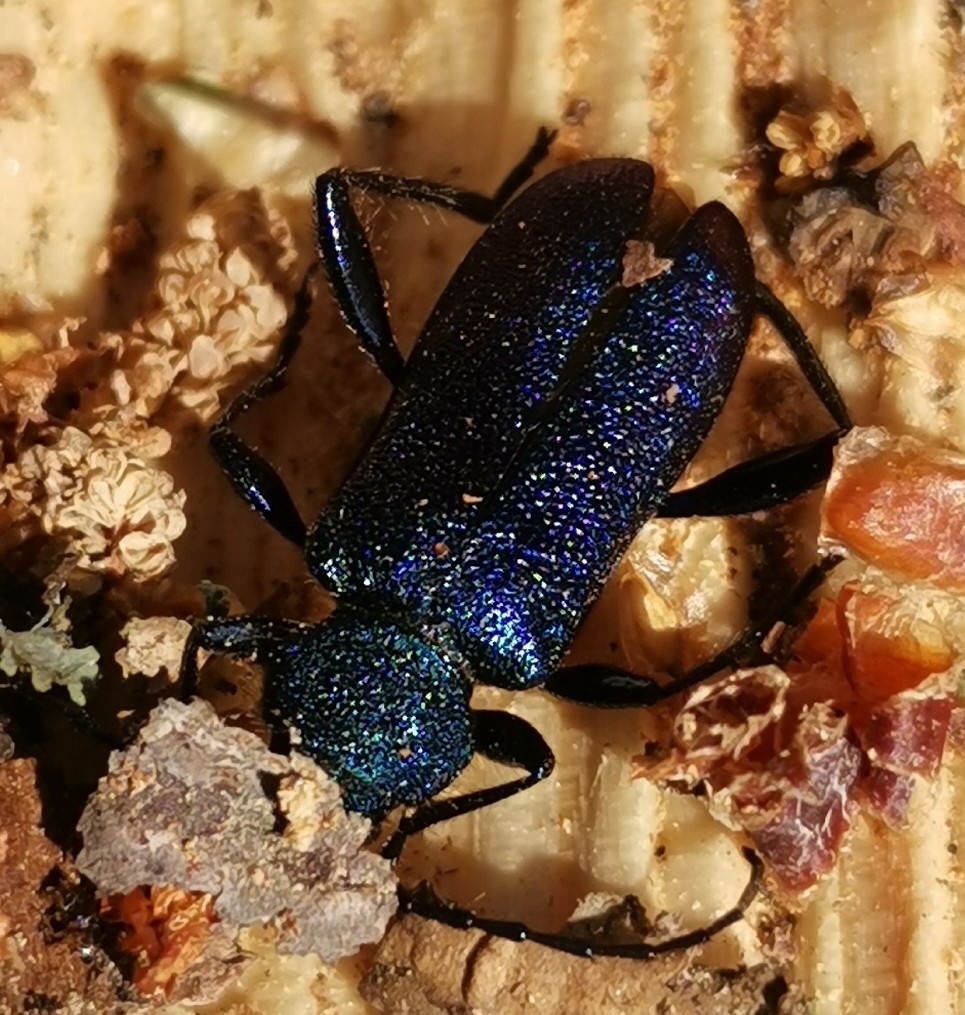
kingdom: Animalia
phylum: Arthropoda
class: Insecta
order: Coleoptera
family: Cerambycidae
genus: Callidium
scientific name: Callidium violaceum
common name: Violet tanbark beetle
